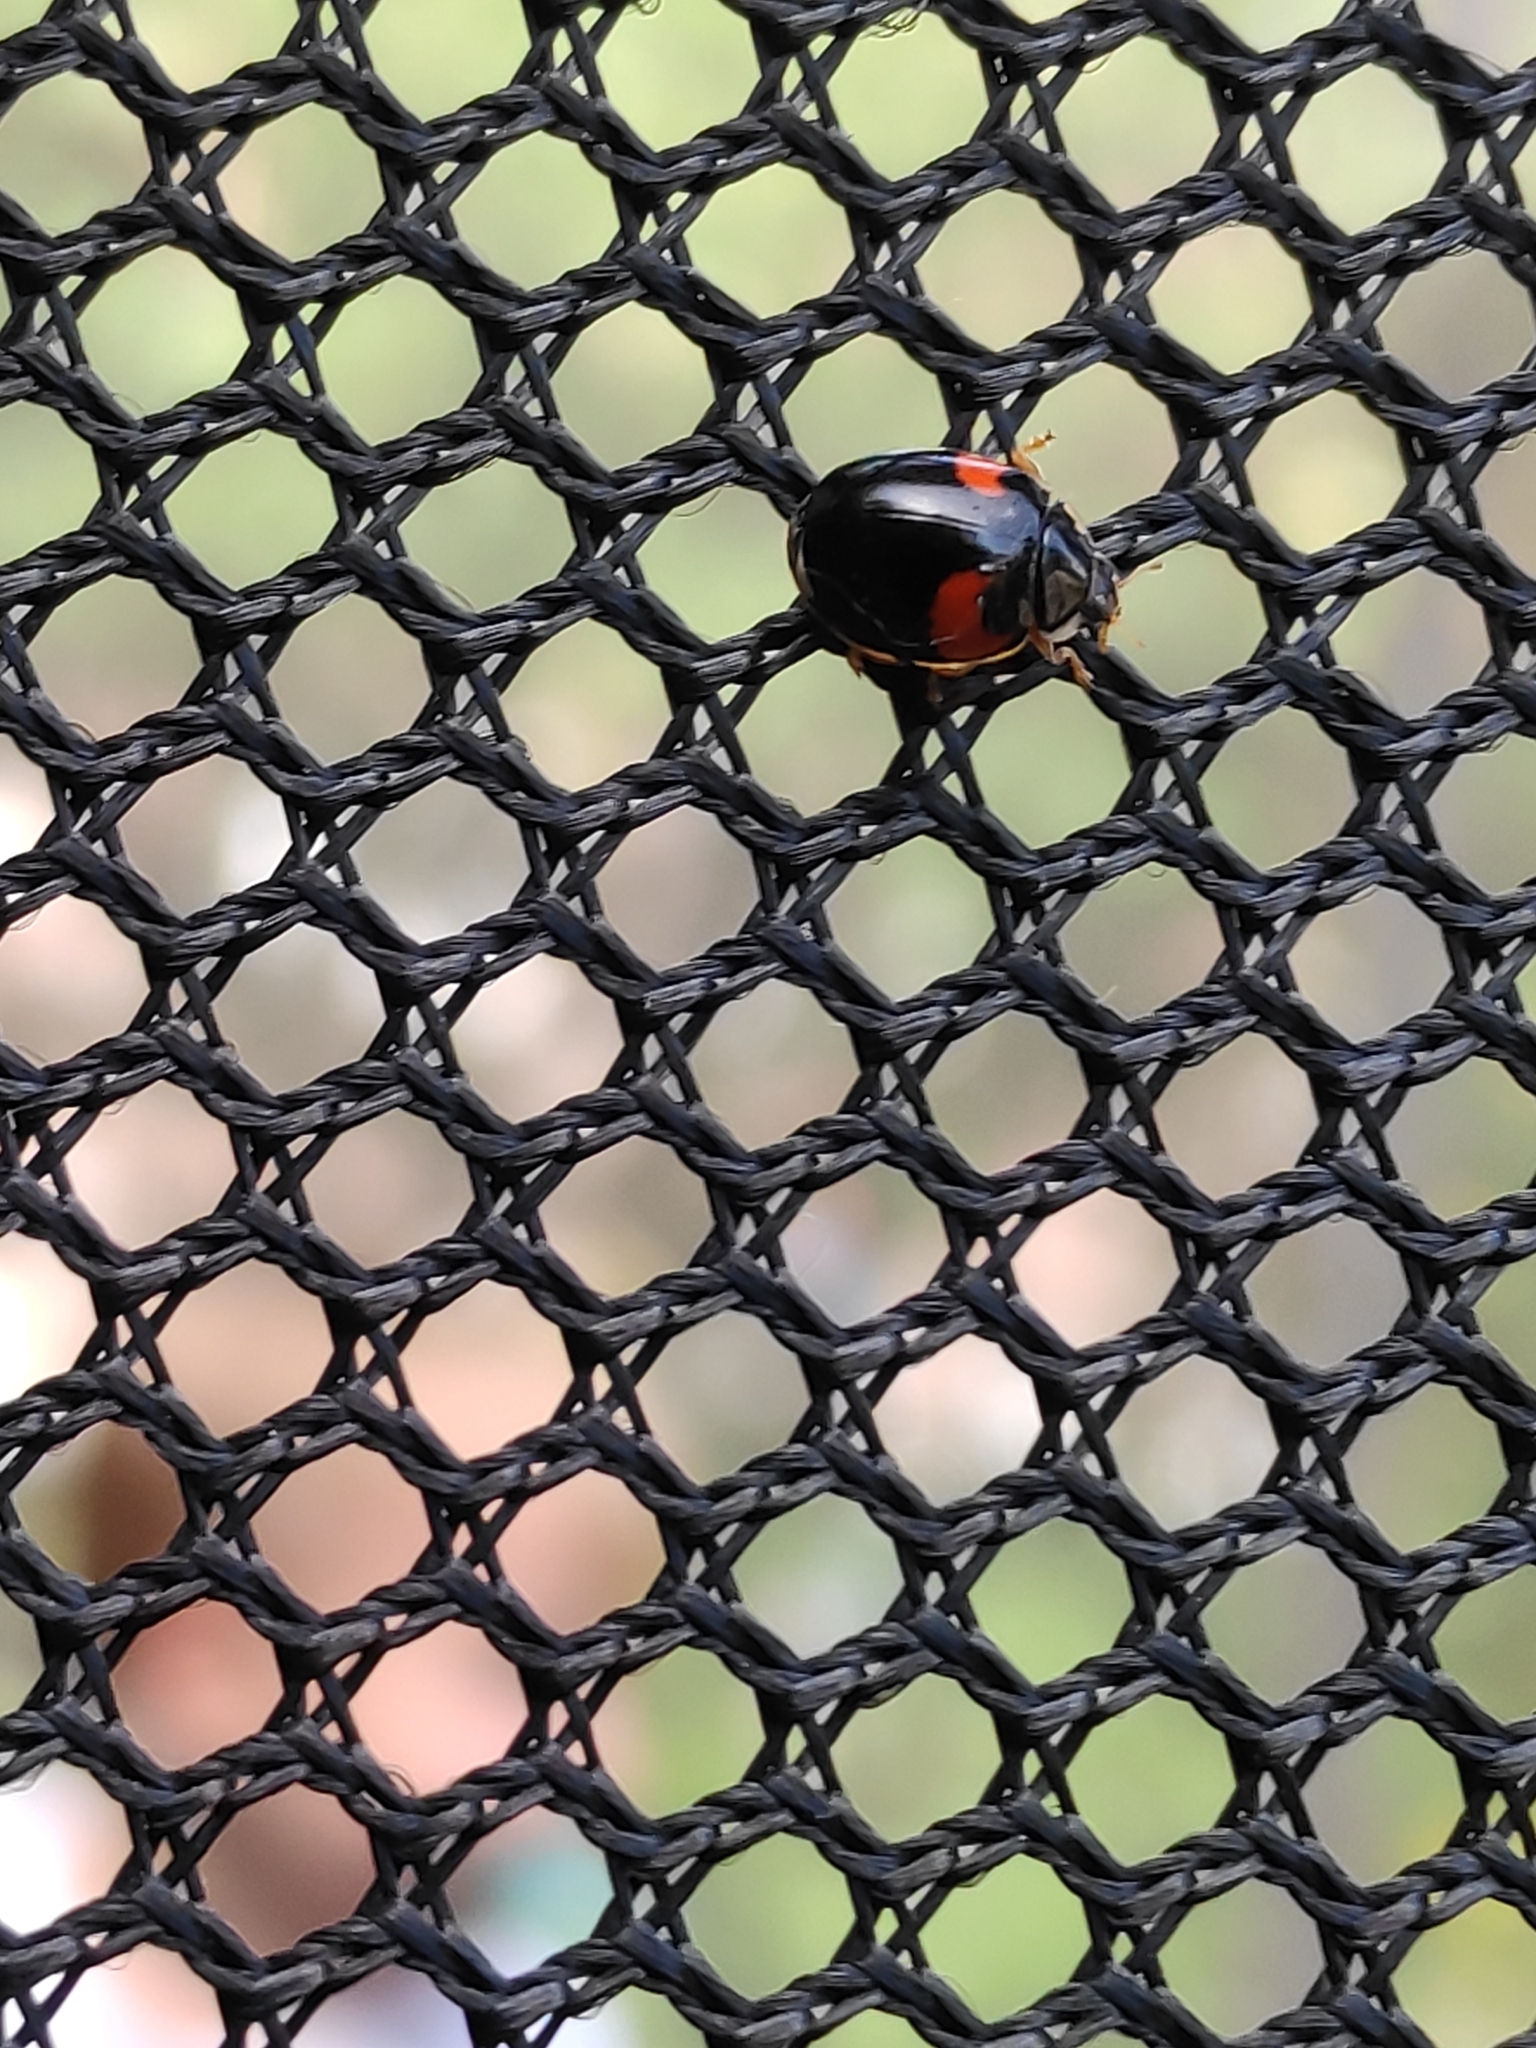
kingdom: Animalia
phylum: Arthropoda
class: Insecta
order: Coleoptera
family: Coccinellidae
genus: Adalia
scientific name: Adalia decempunctata
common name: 10-spot ladybird
